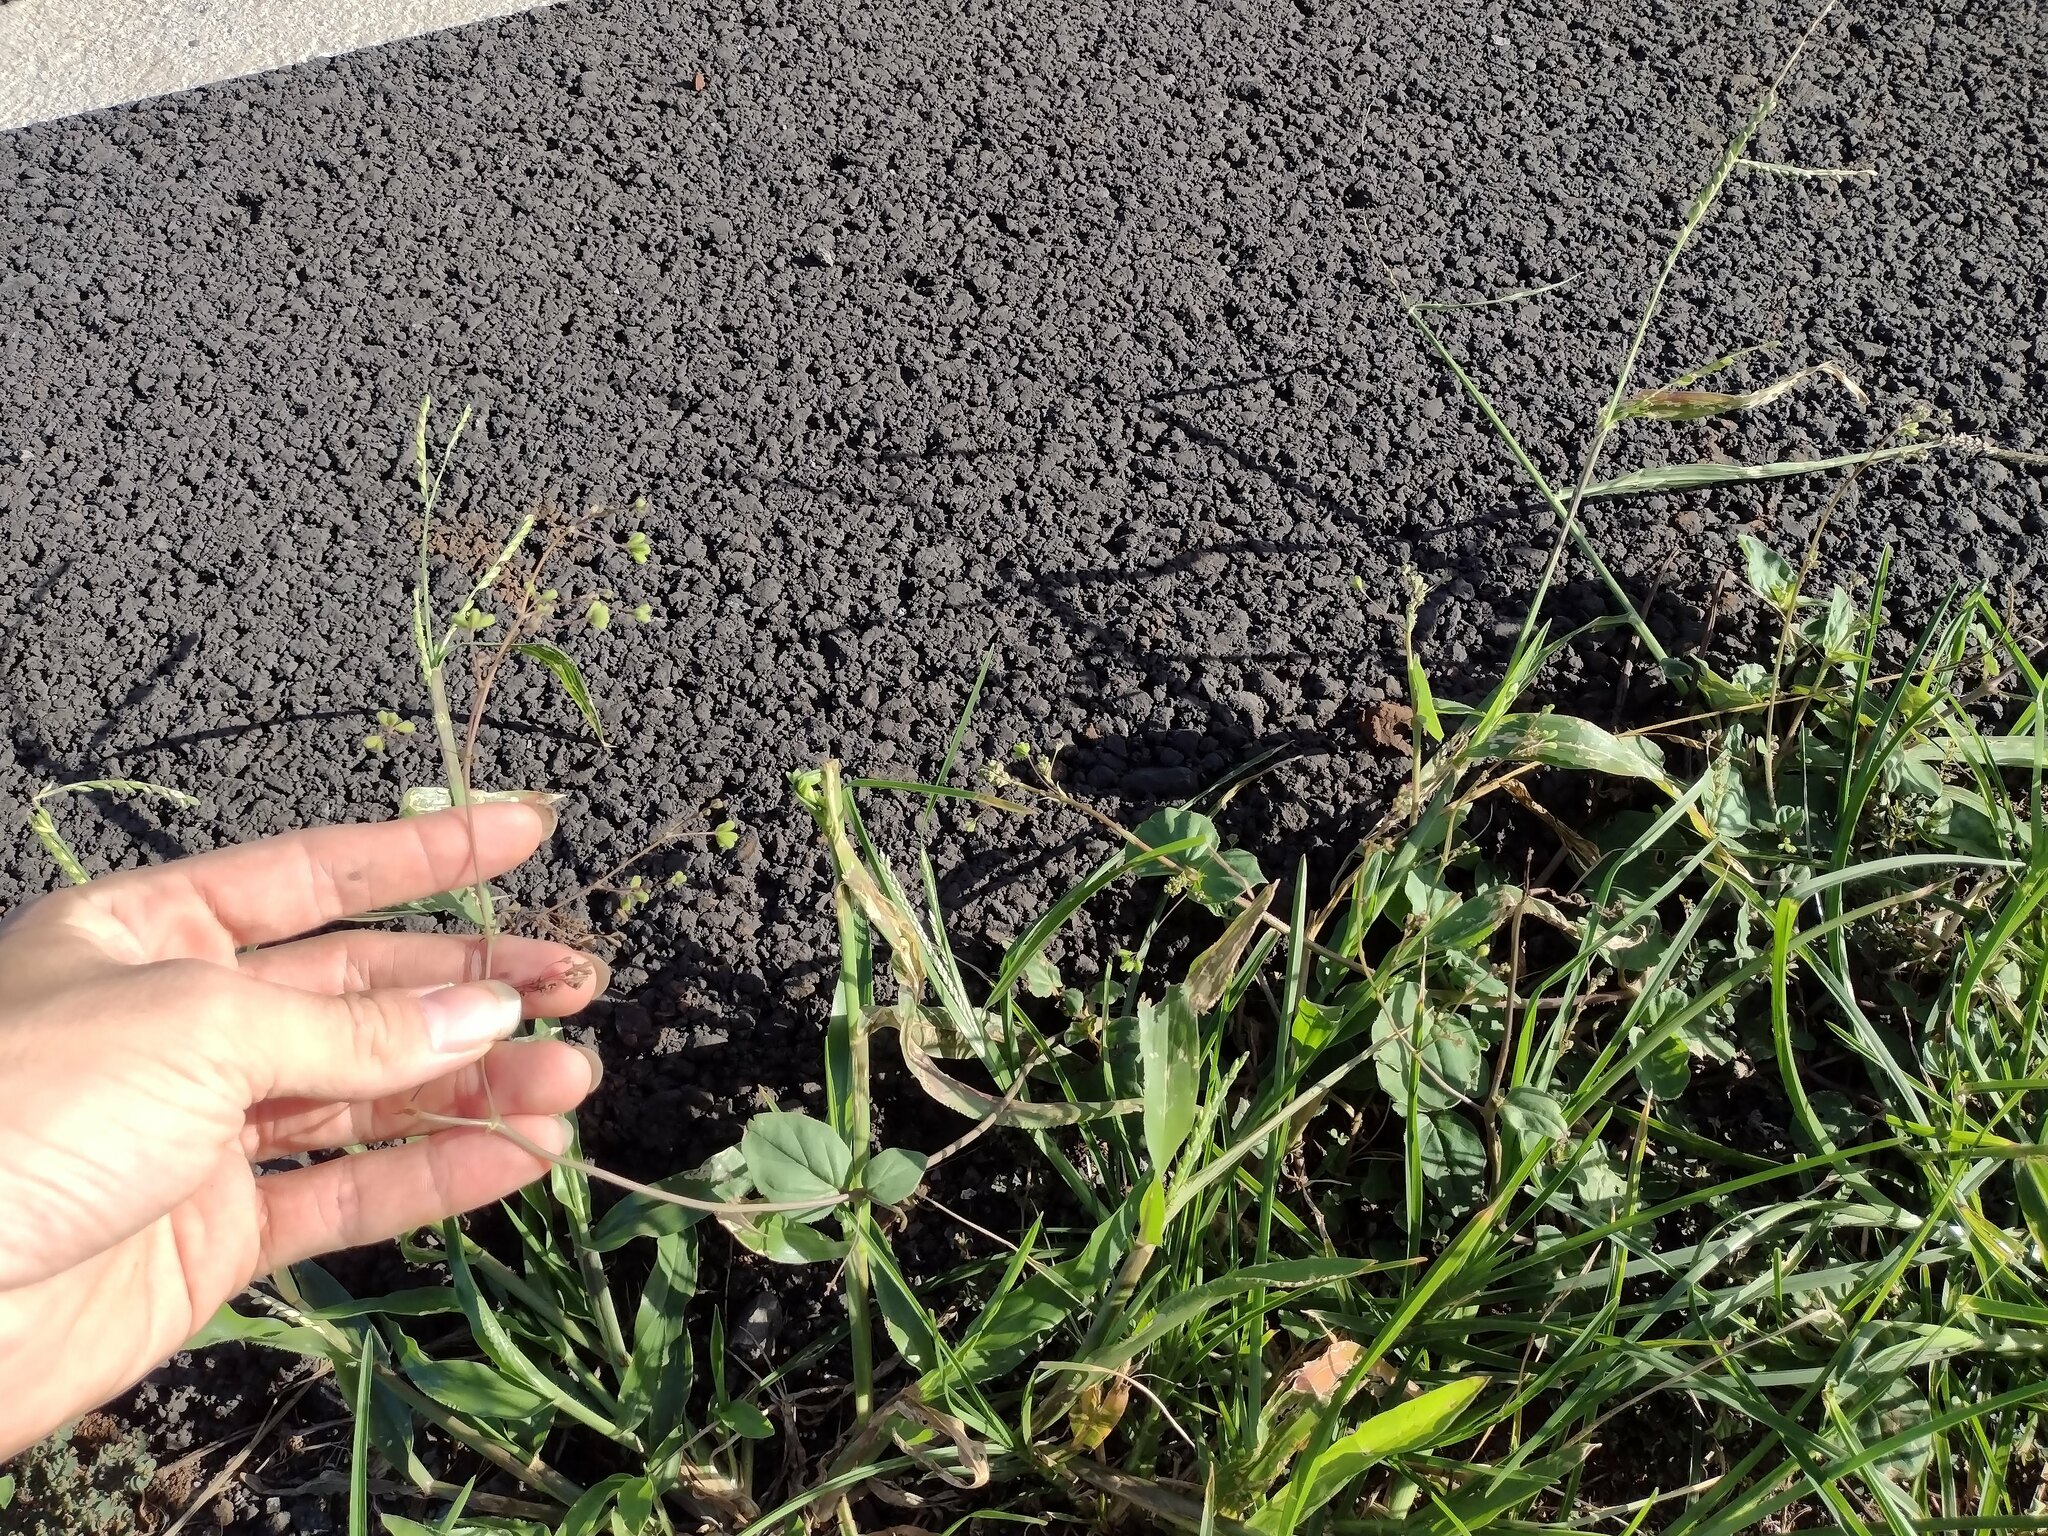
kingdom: Plantae
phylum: Tracheophyta
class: Magnoliopsida
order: Caryophyllales
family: Nyctaginaceae
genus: Boerhavia
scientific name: Boerhavia diffusa
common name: Red spiderling
